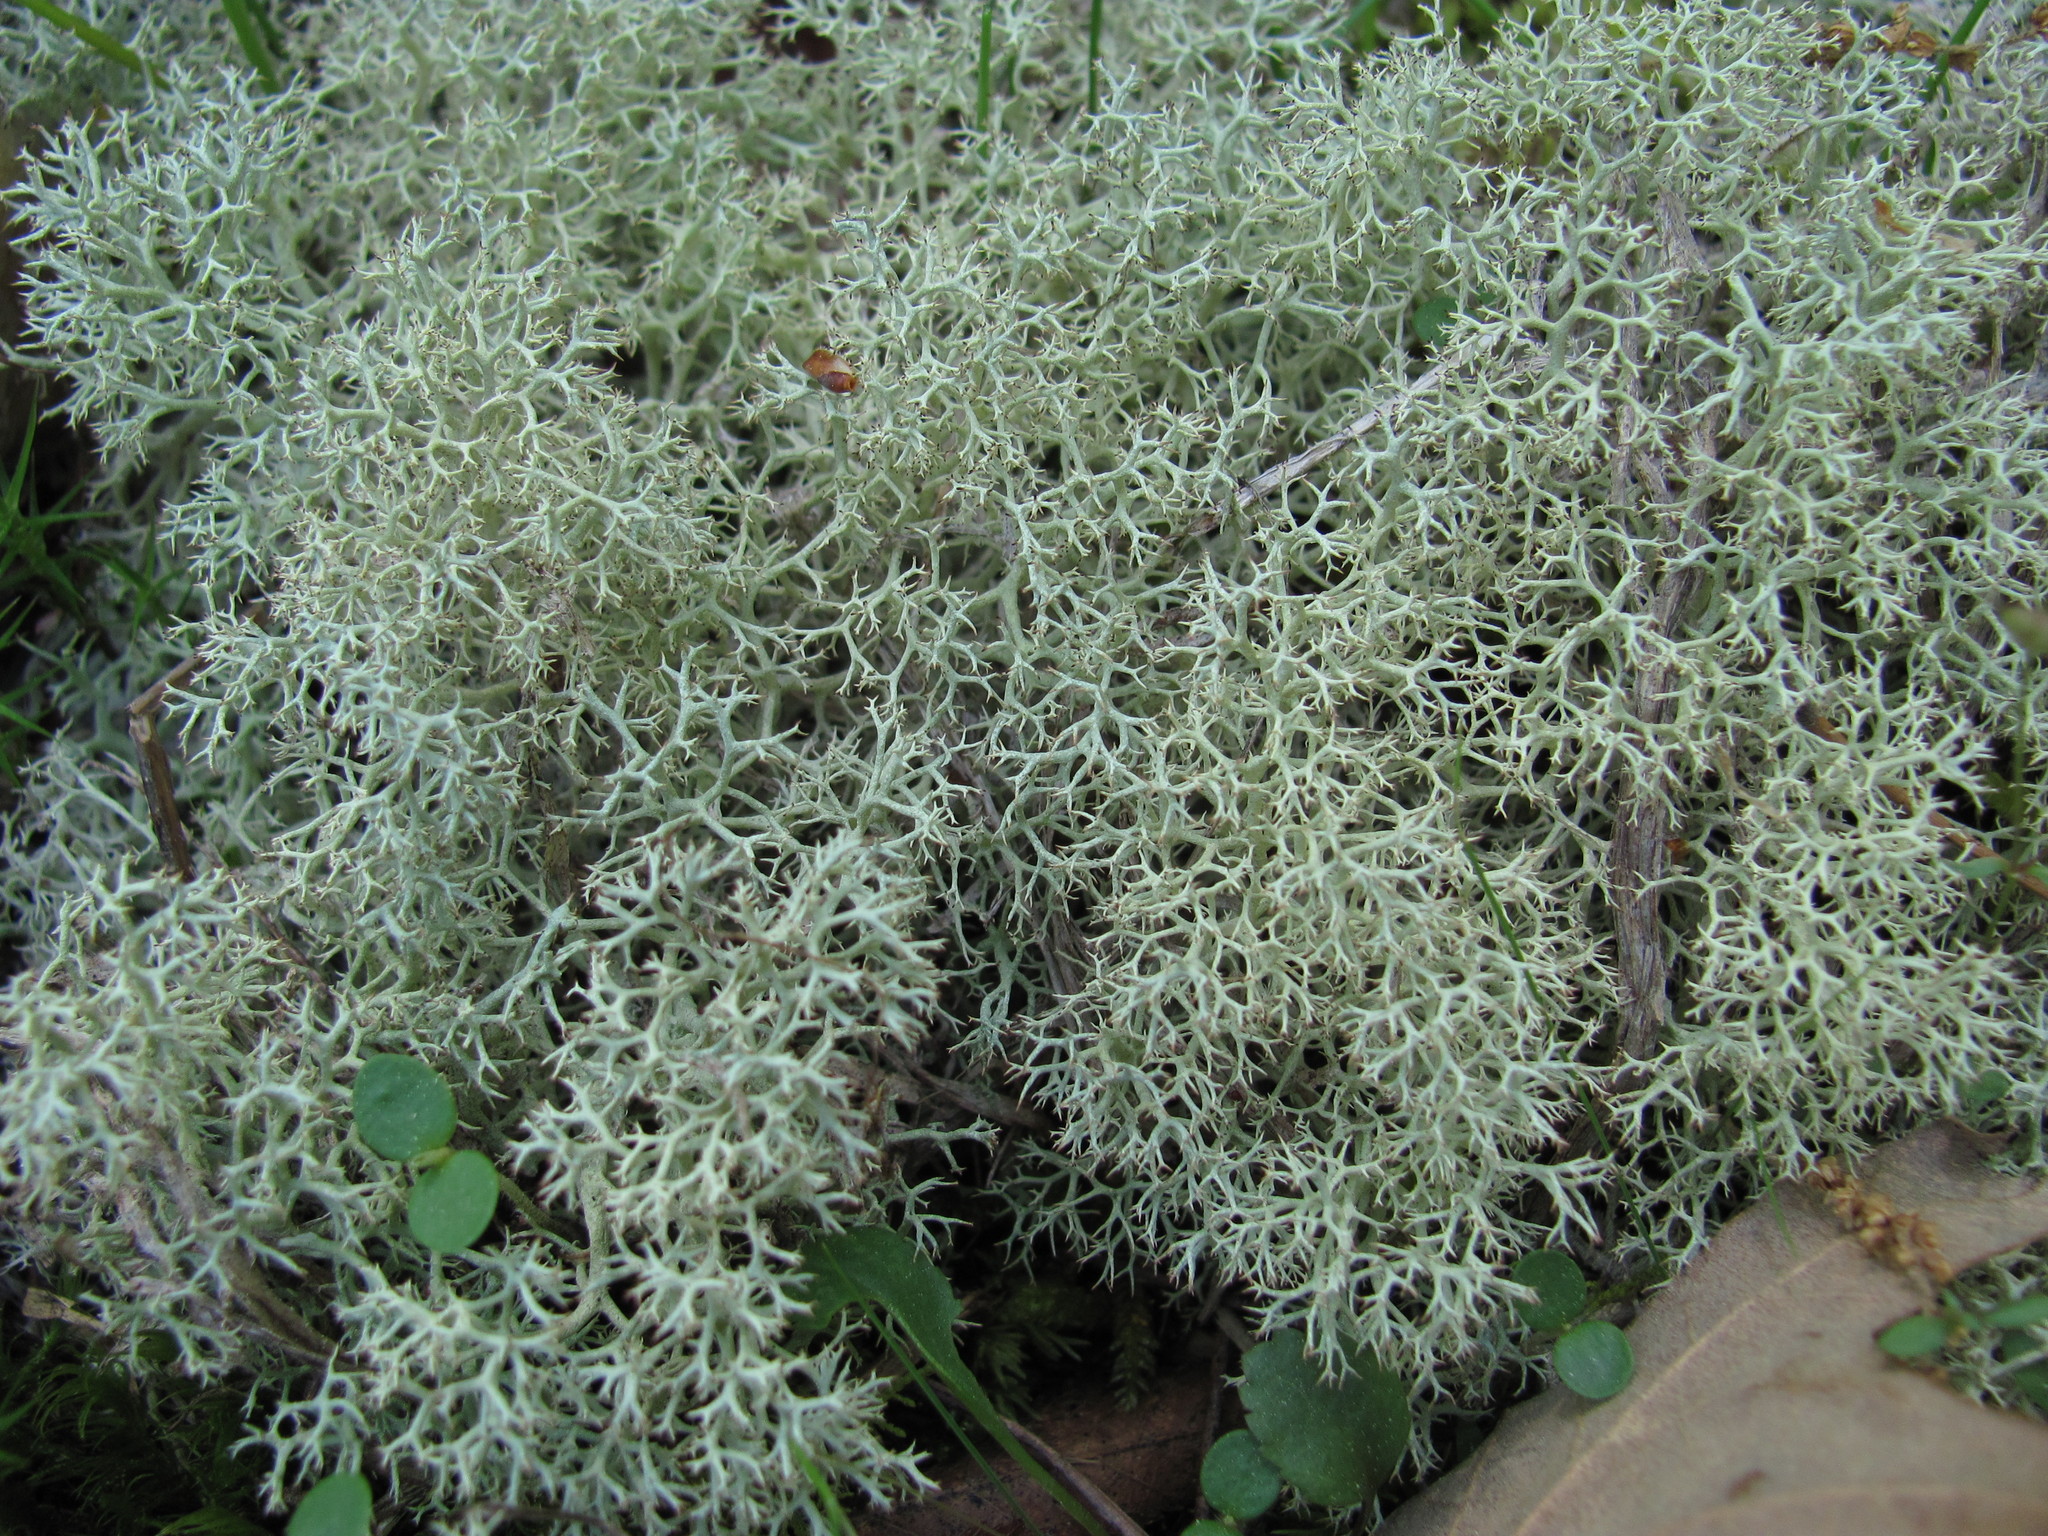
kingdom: Fungi
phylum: Ascomycota
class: Lecanoromycetes
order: Lecanorales
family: Cladoniaceae
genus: Cladonia
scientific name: Cladonia subtenuis
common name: Dixie reindeer lichen
